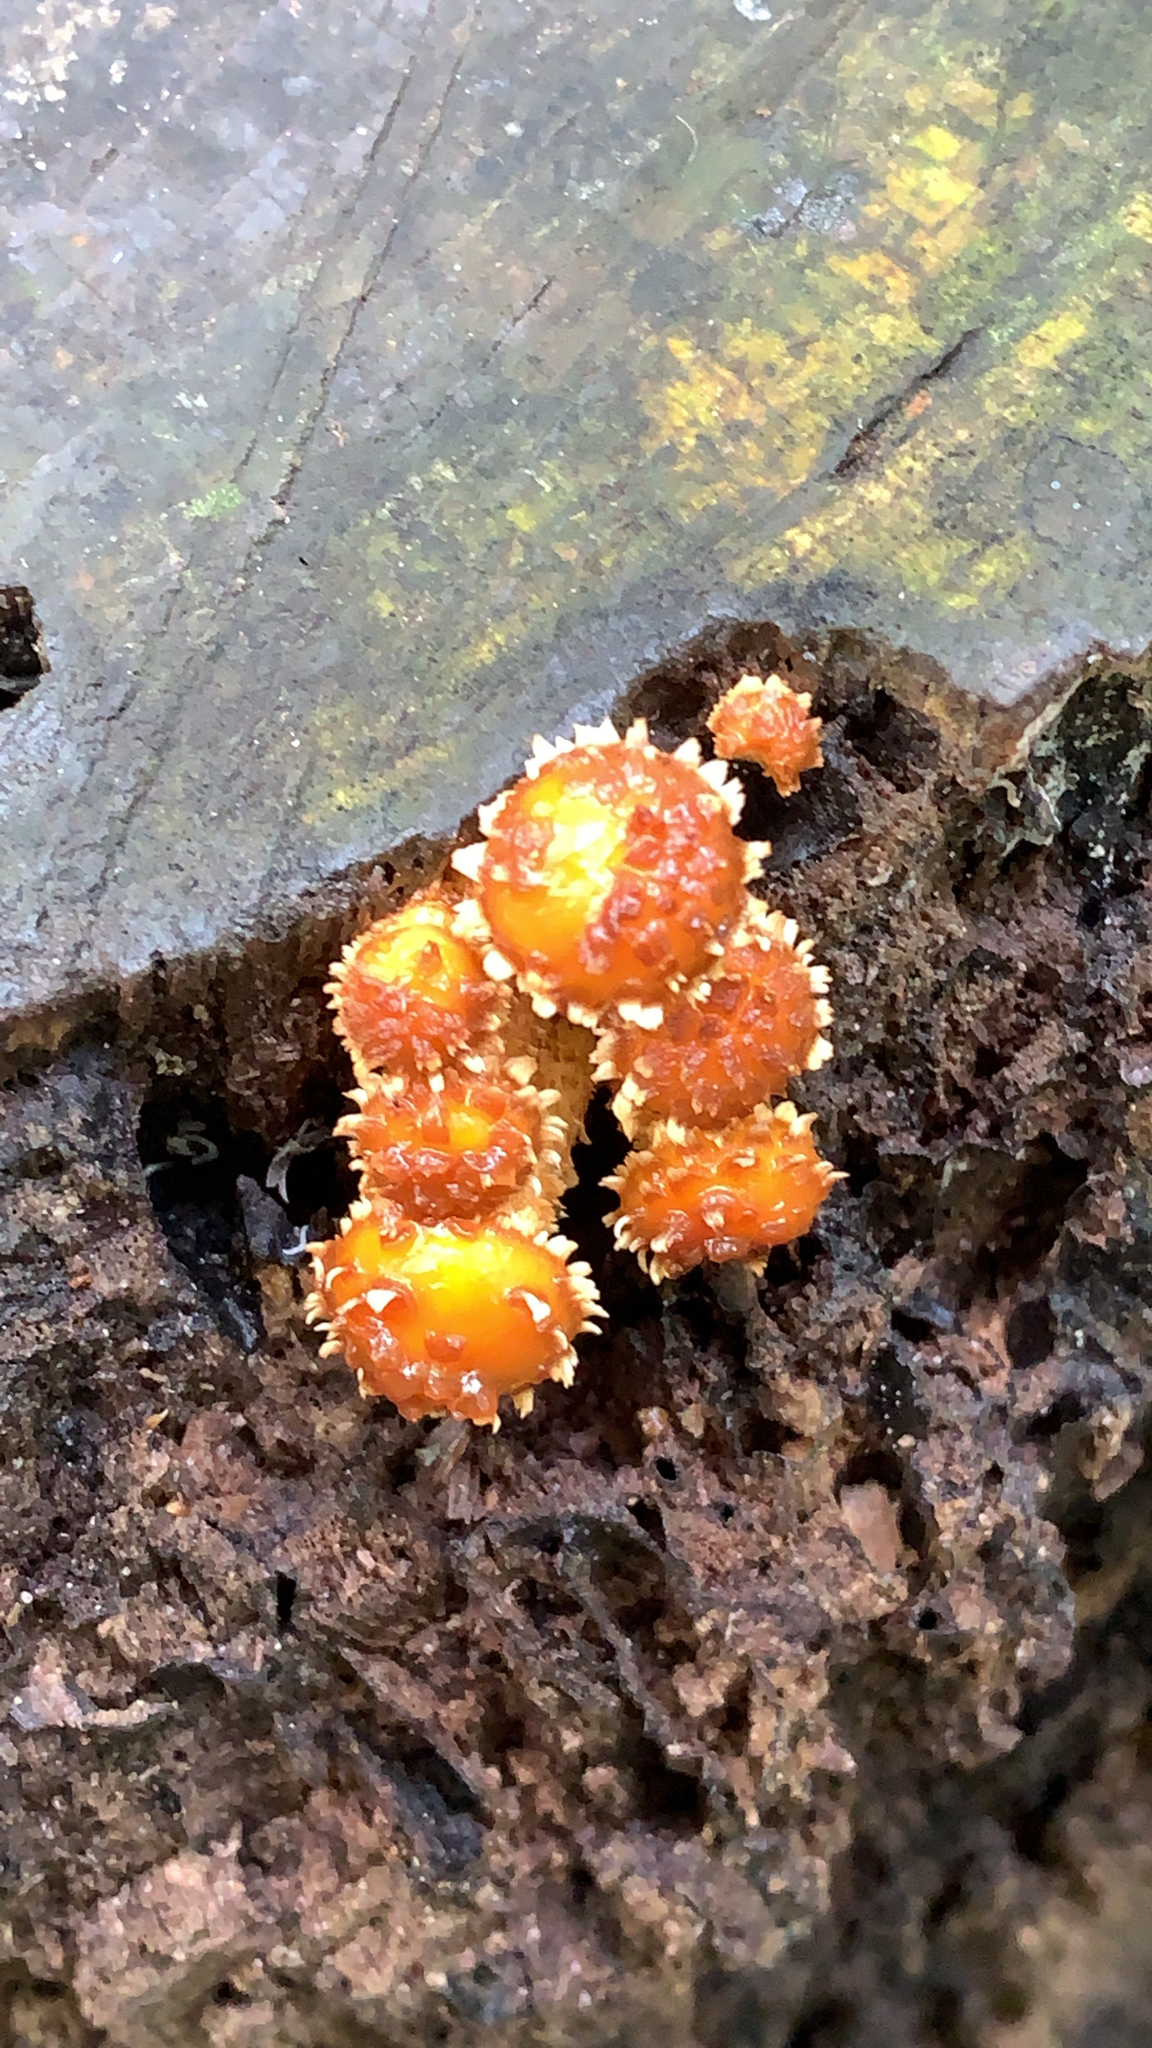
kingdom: Fungi
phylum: Basidiomycota
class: Agaricomycetes
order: Agaricales
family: Strophariaceae
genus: Pholiota
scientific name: Pholiota squarrosoides
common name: Sharp-scaly pholiota
